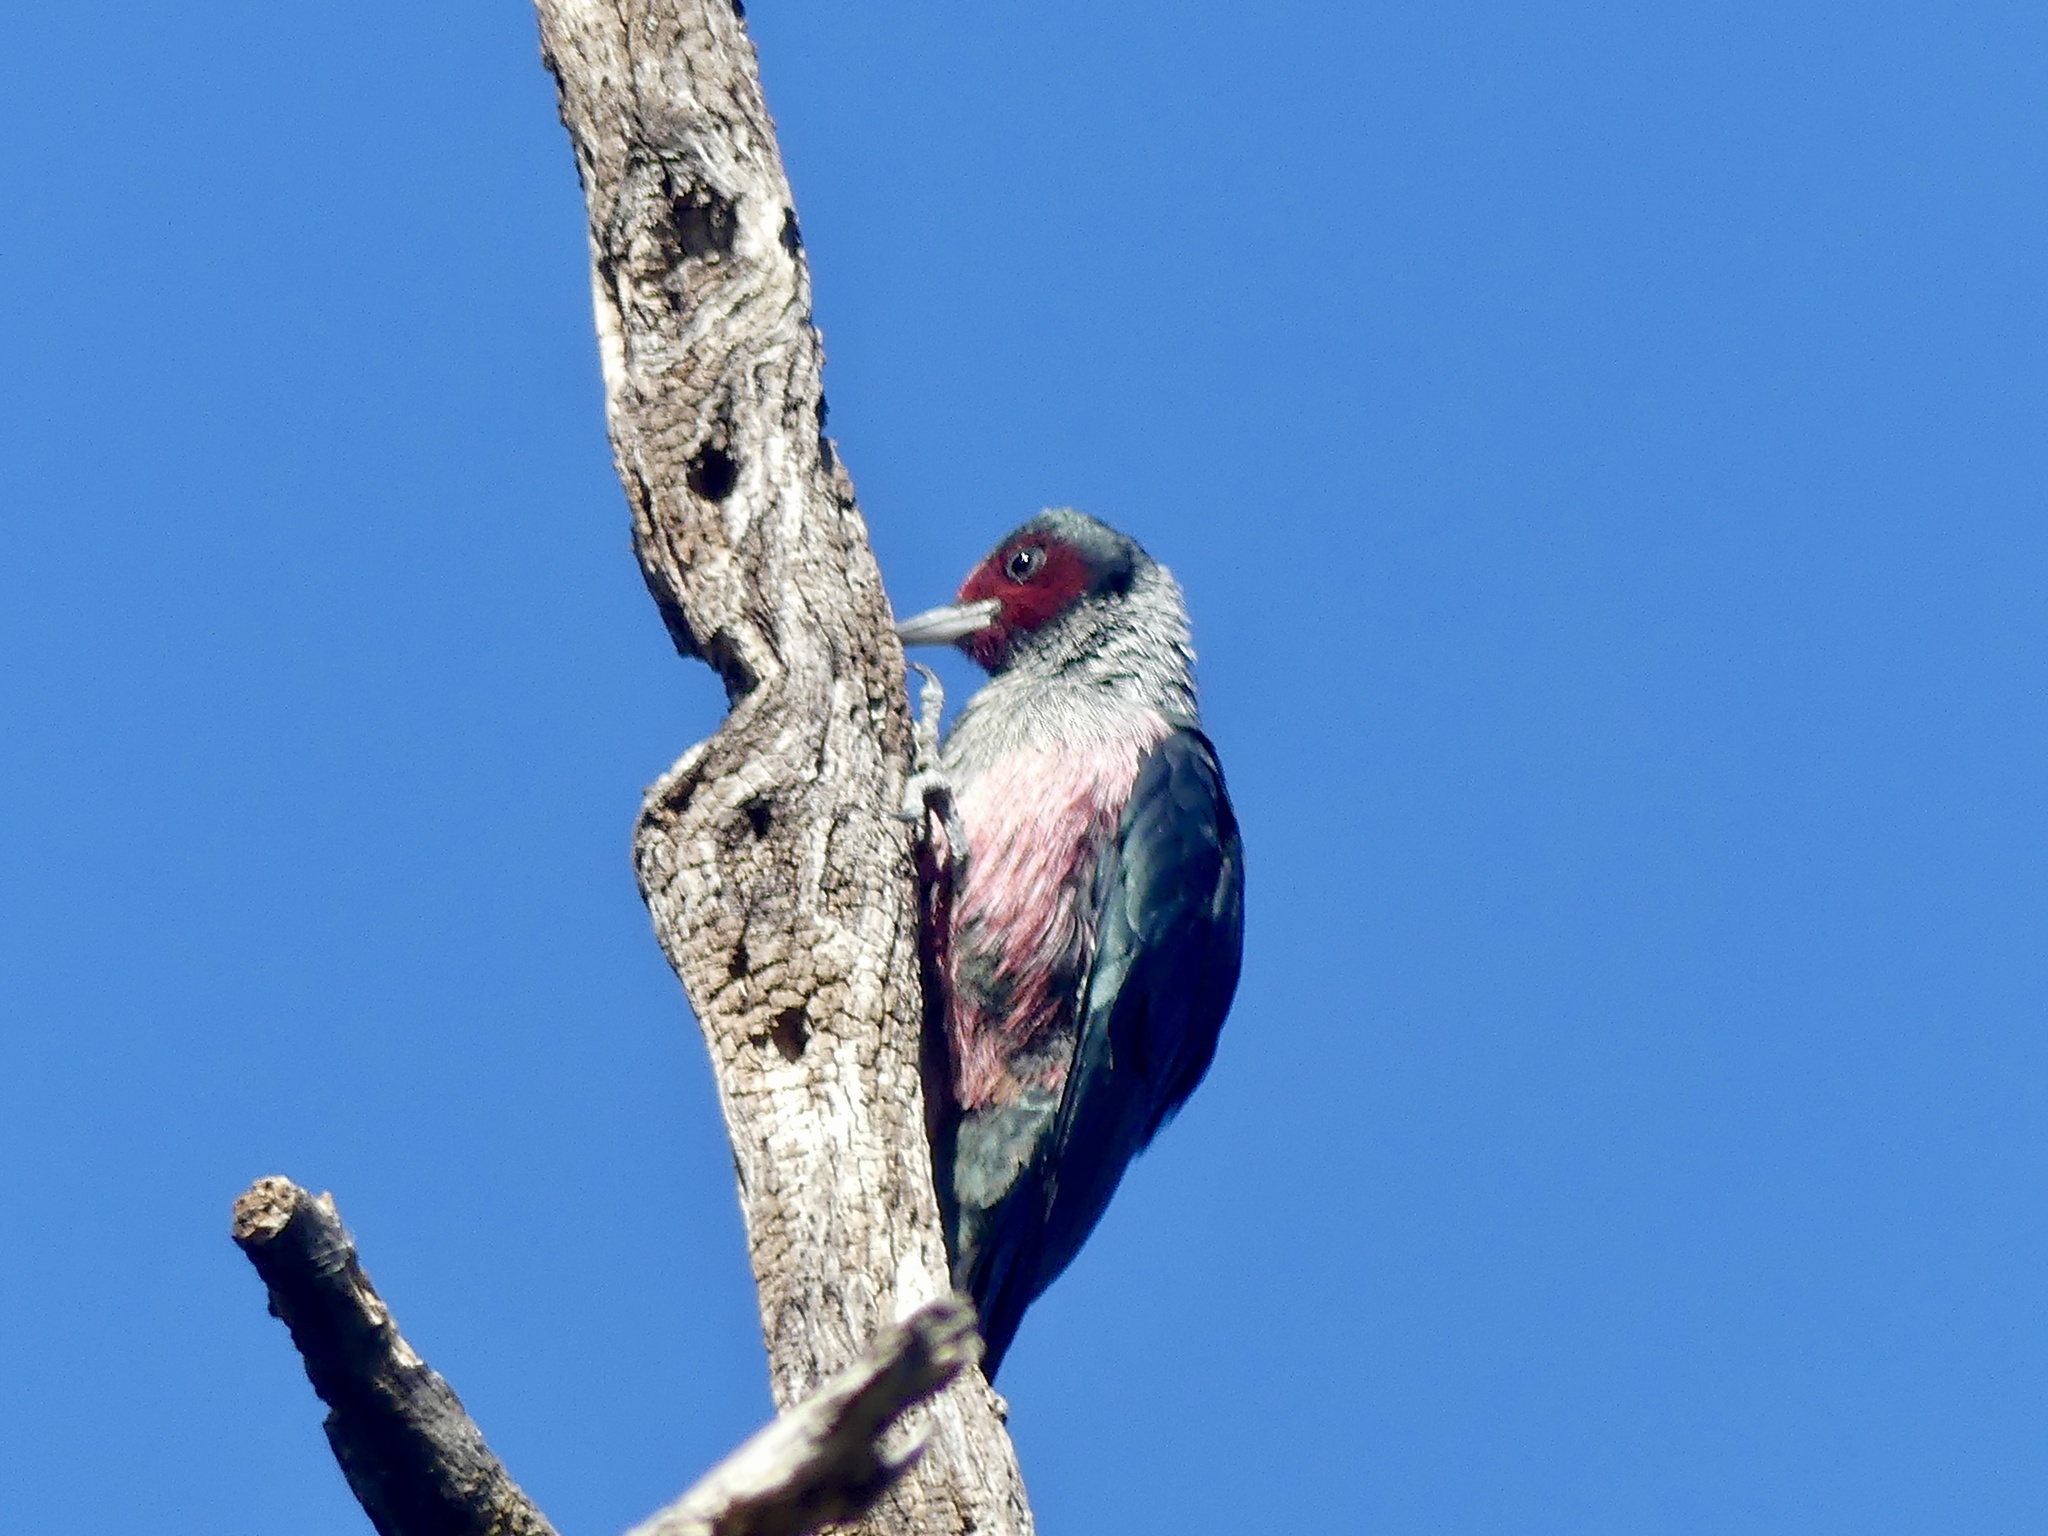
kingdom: Animalia
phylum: Chordata
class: Aves
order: Piciformes
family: Picidae
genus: Melanerpes
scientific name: Melanerpes lewis
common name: Lewis's woodpecker
